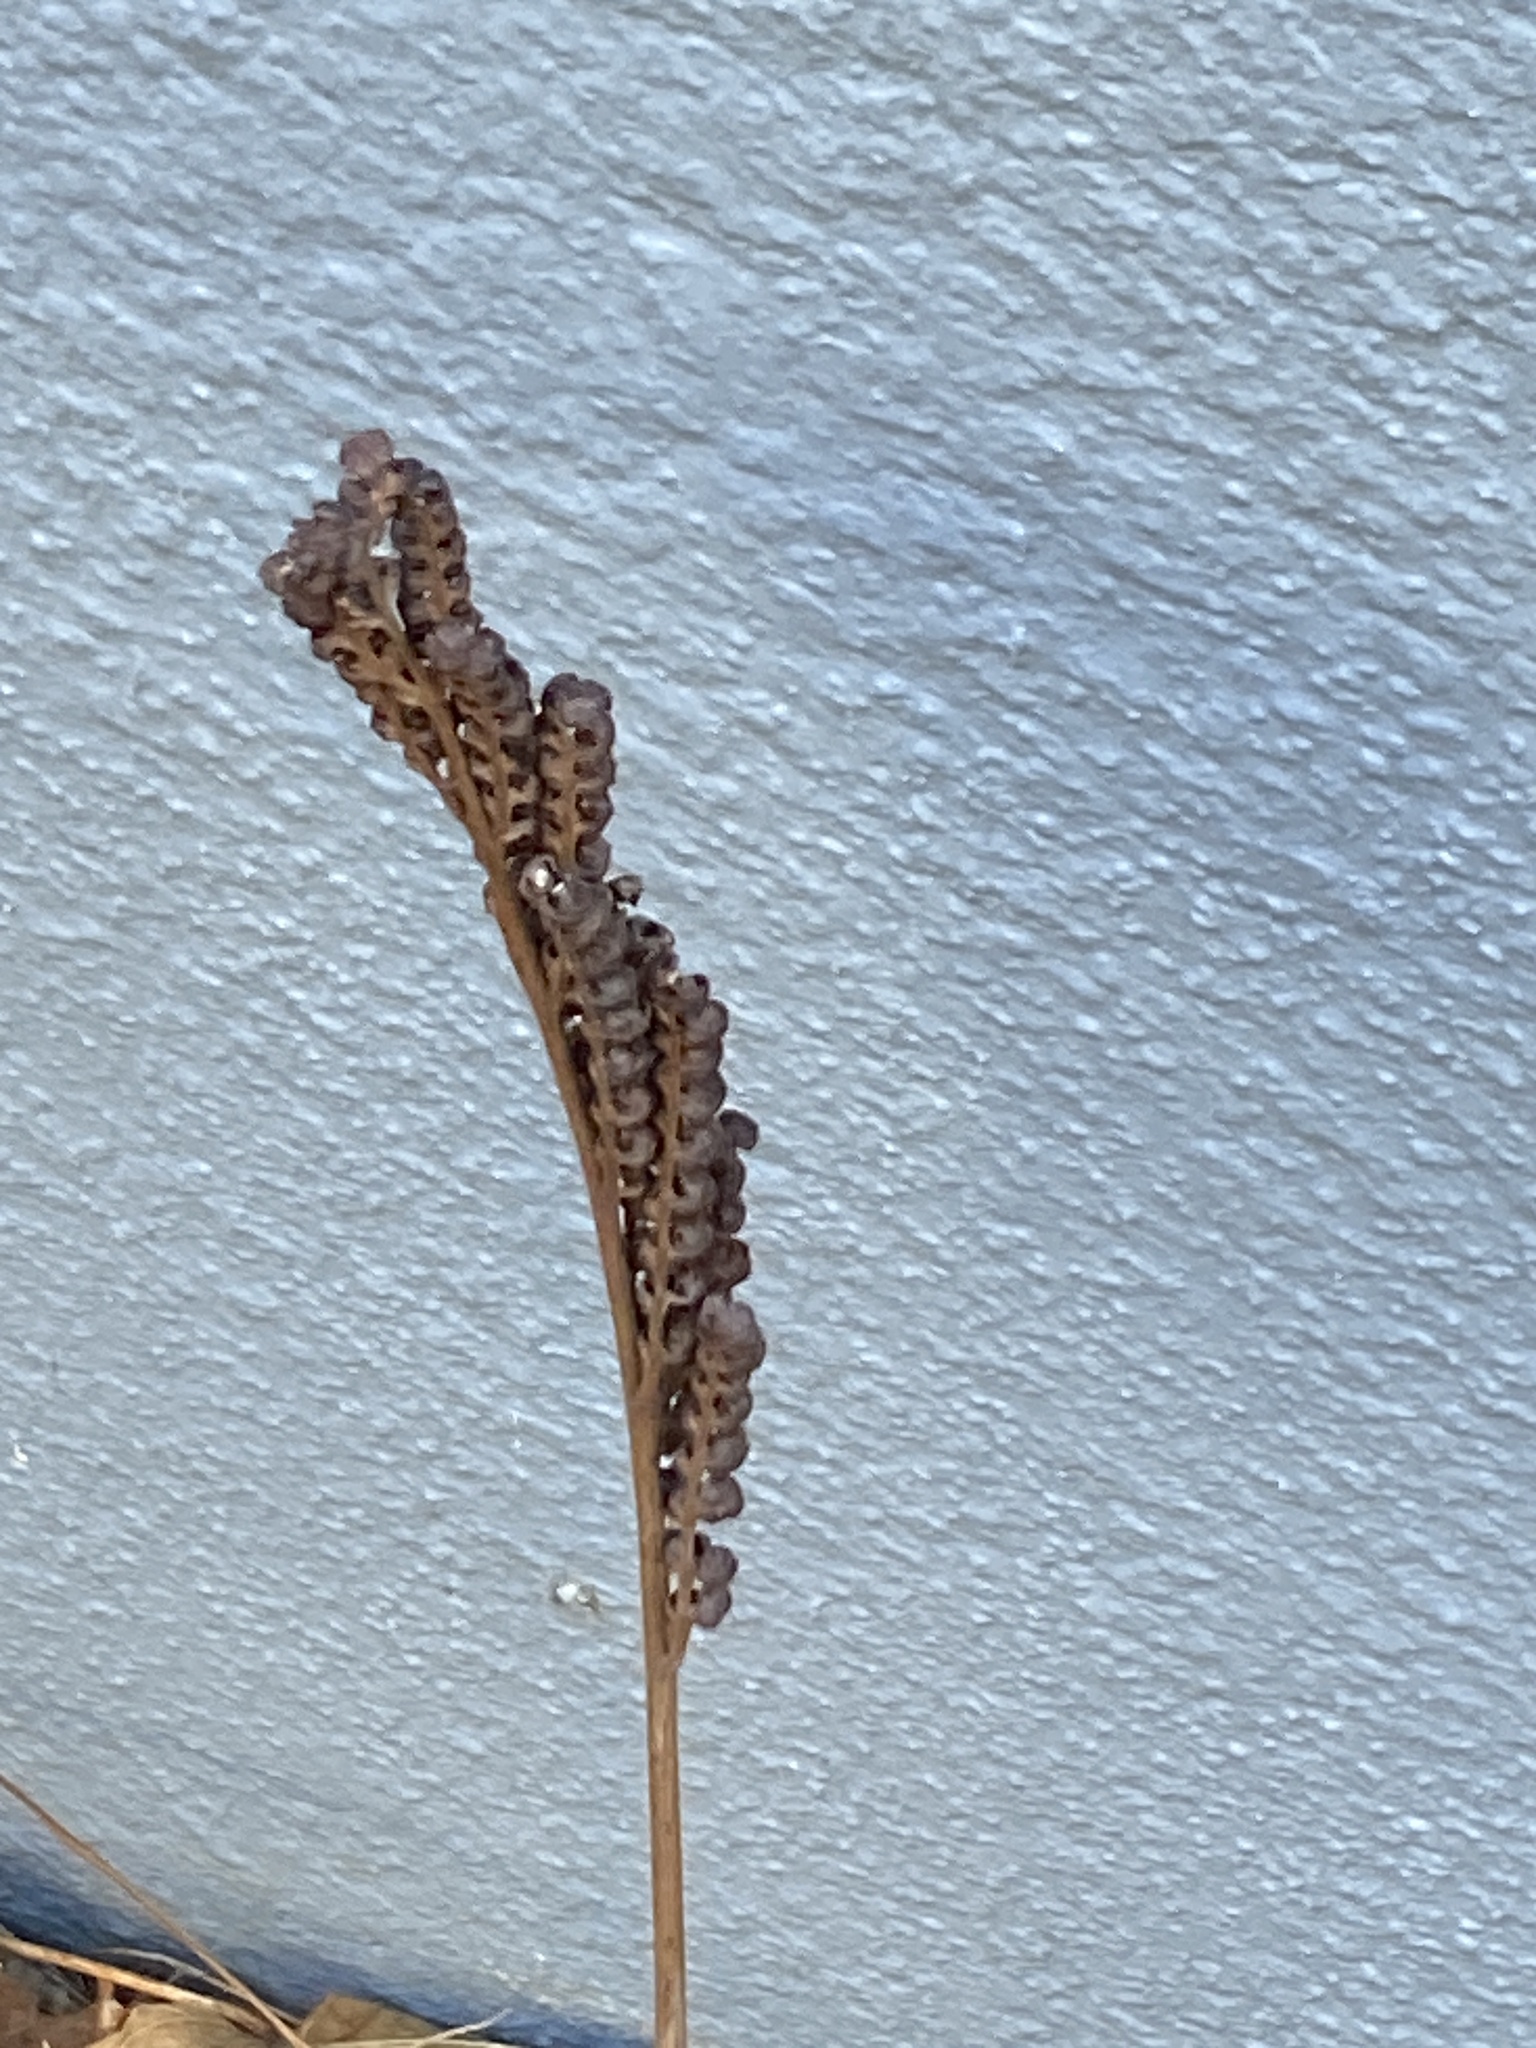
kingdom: Plantae
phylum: Tracheophyta
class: Polypodiopsida
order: Polypodiales
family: Onocleaceae
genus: Onoclea
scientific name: Onoclea sensibilis
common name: Sensitive fern
